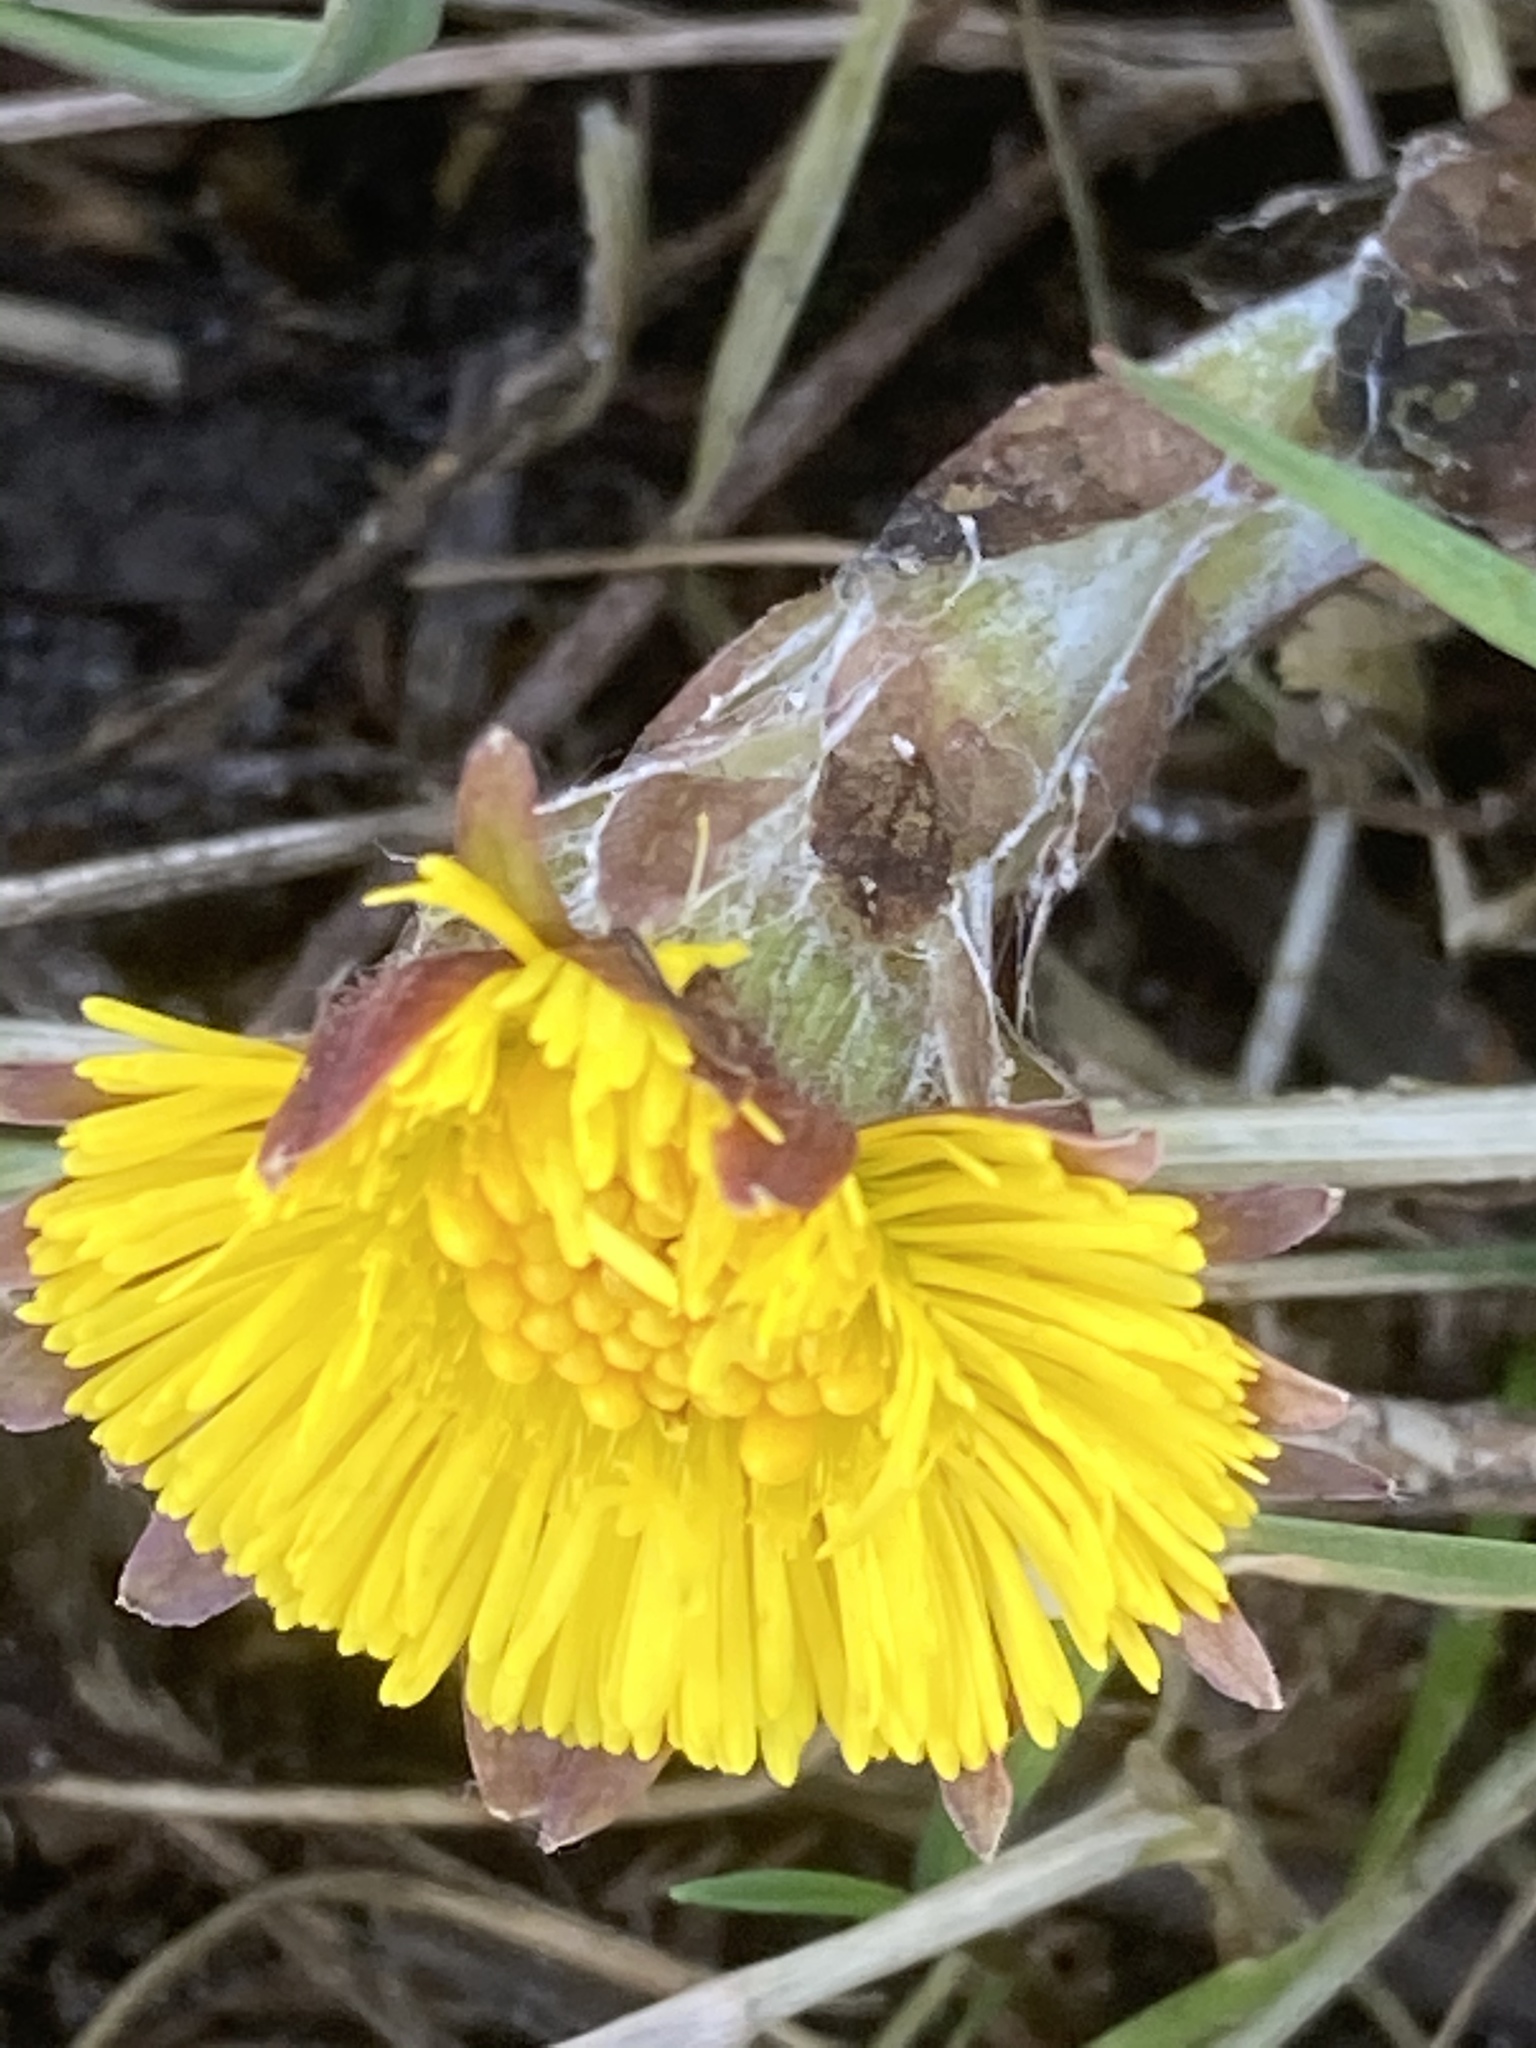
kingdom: Plantae
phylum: Tracheophyta
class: Magnoliopsida
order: Asterales
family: Asteraceae
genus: Tussilago
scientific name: Tussilago farfara
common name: Coltsfoot
